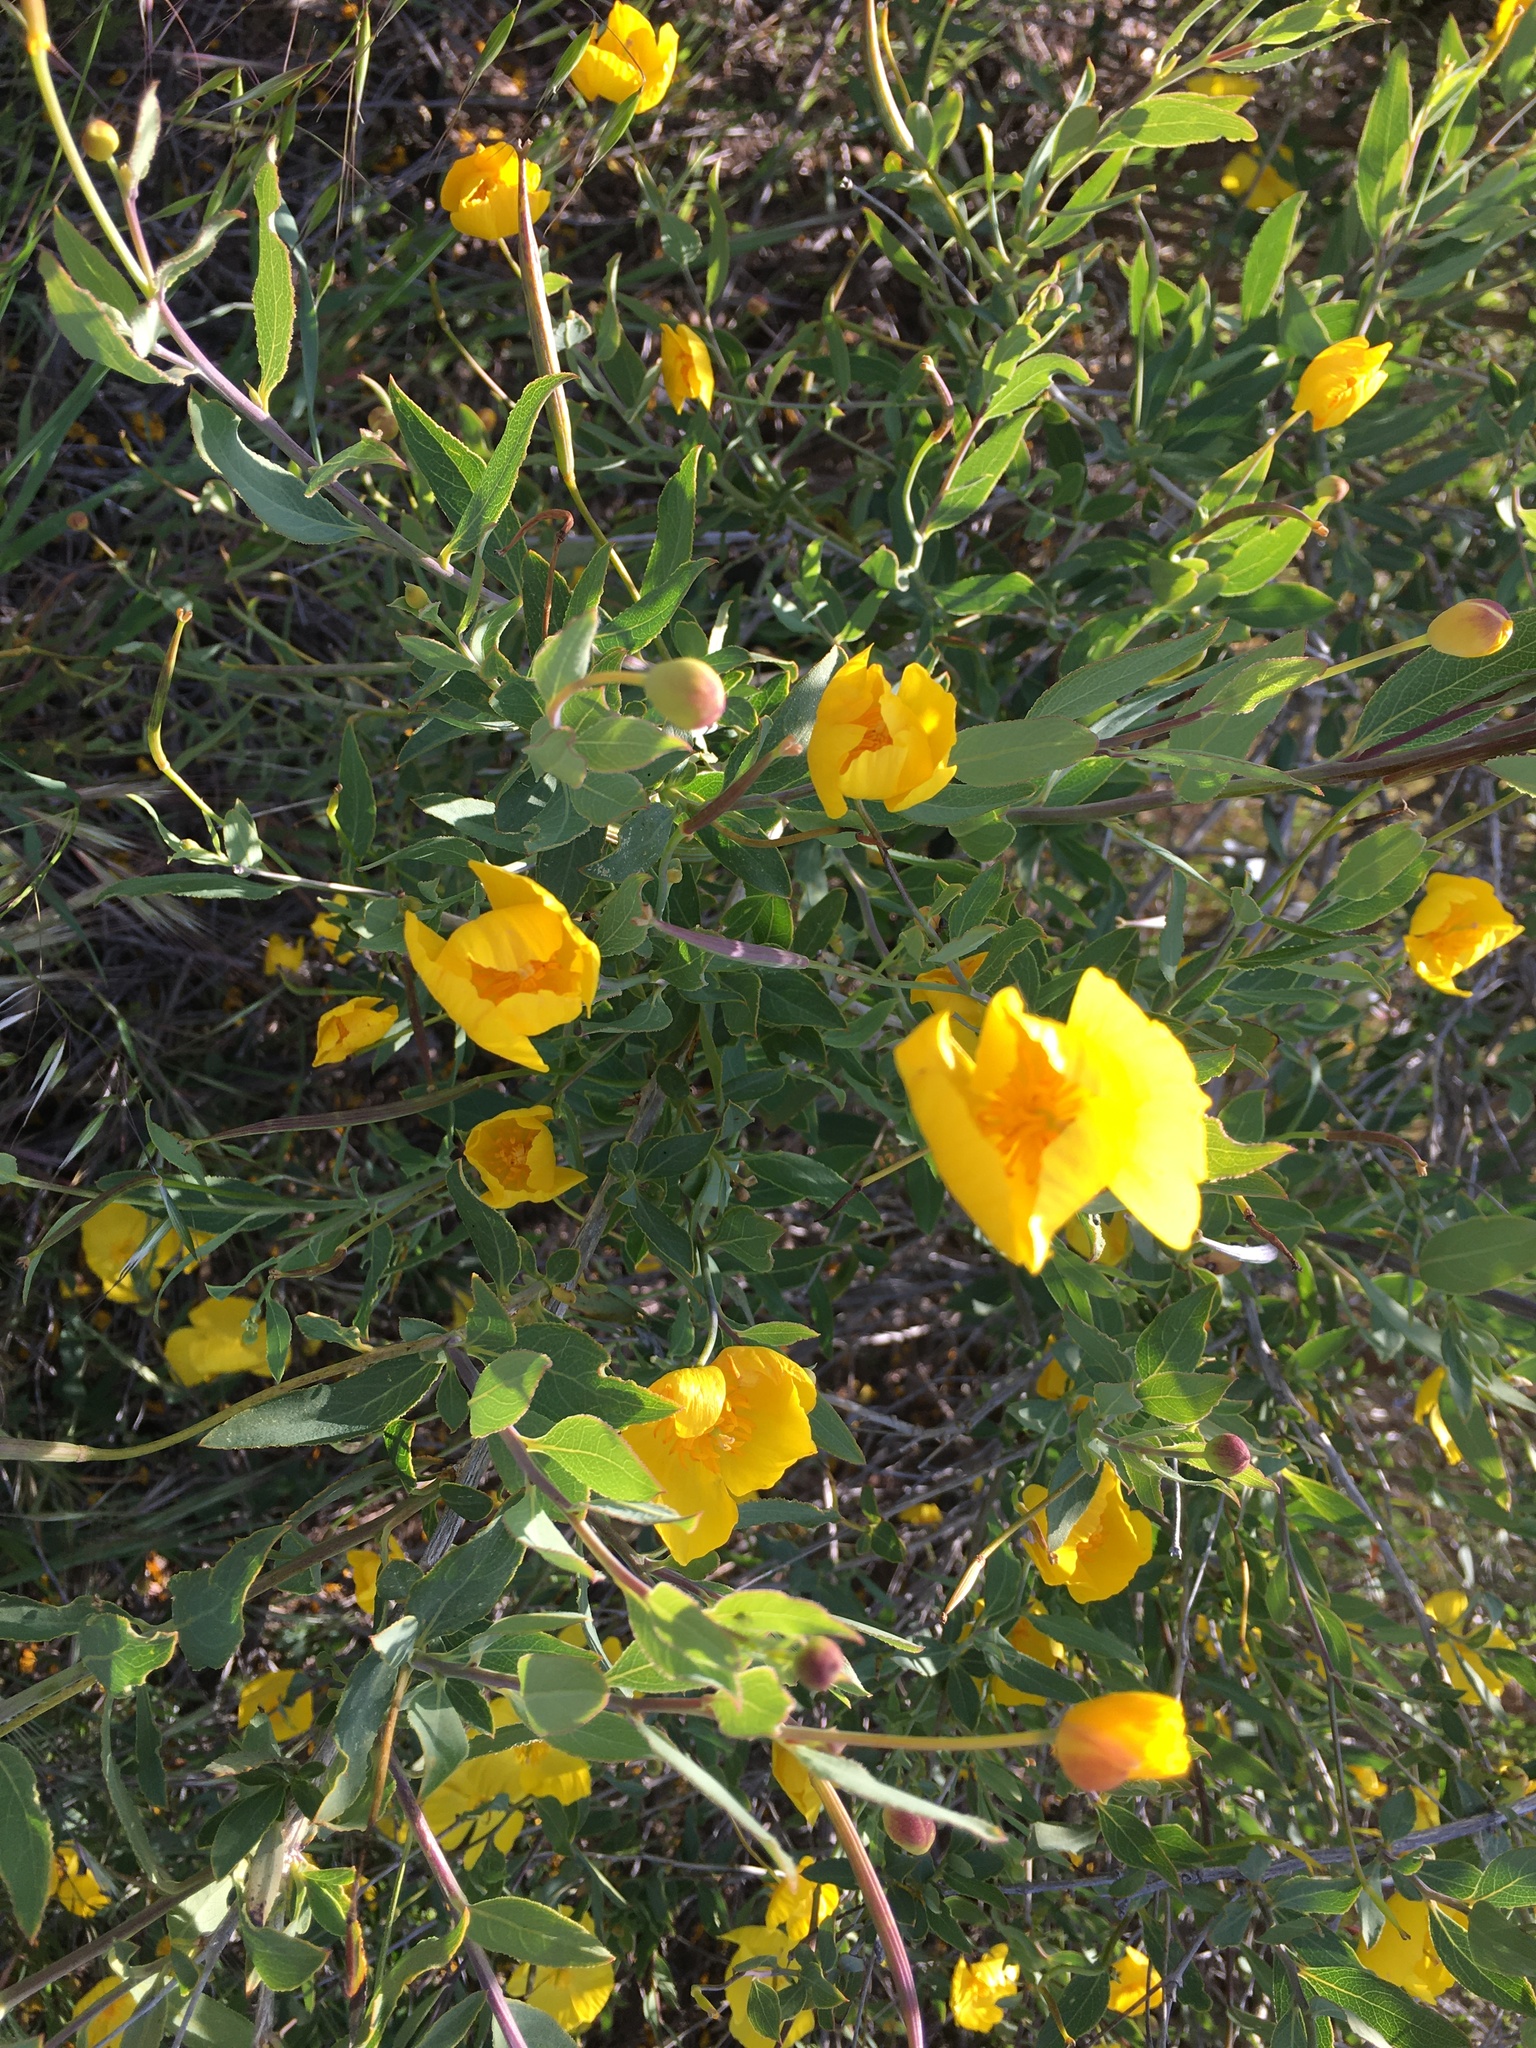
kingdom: Plantae
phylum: Tracheophyta
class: Magnoliopsida
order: Ranunculales
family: Papaveraceae
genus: Dendromecon
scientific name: Dendromecon rigida
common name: Tree poppy
